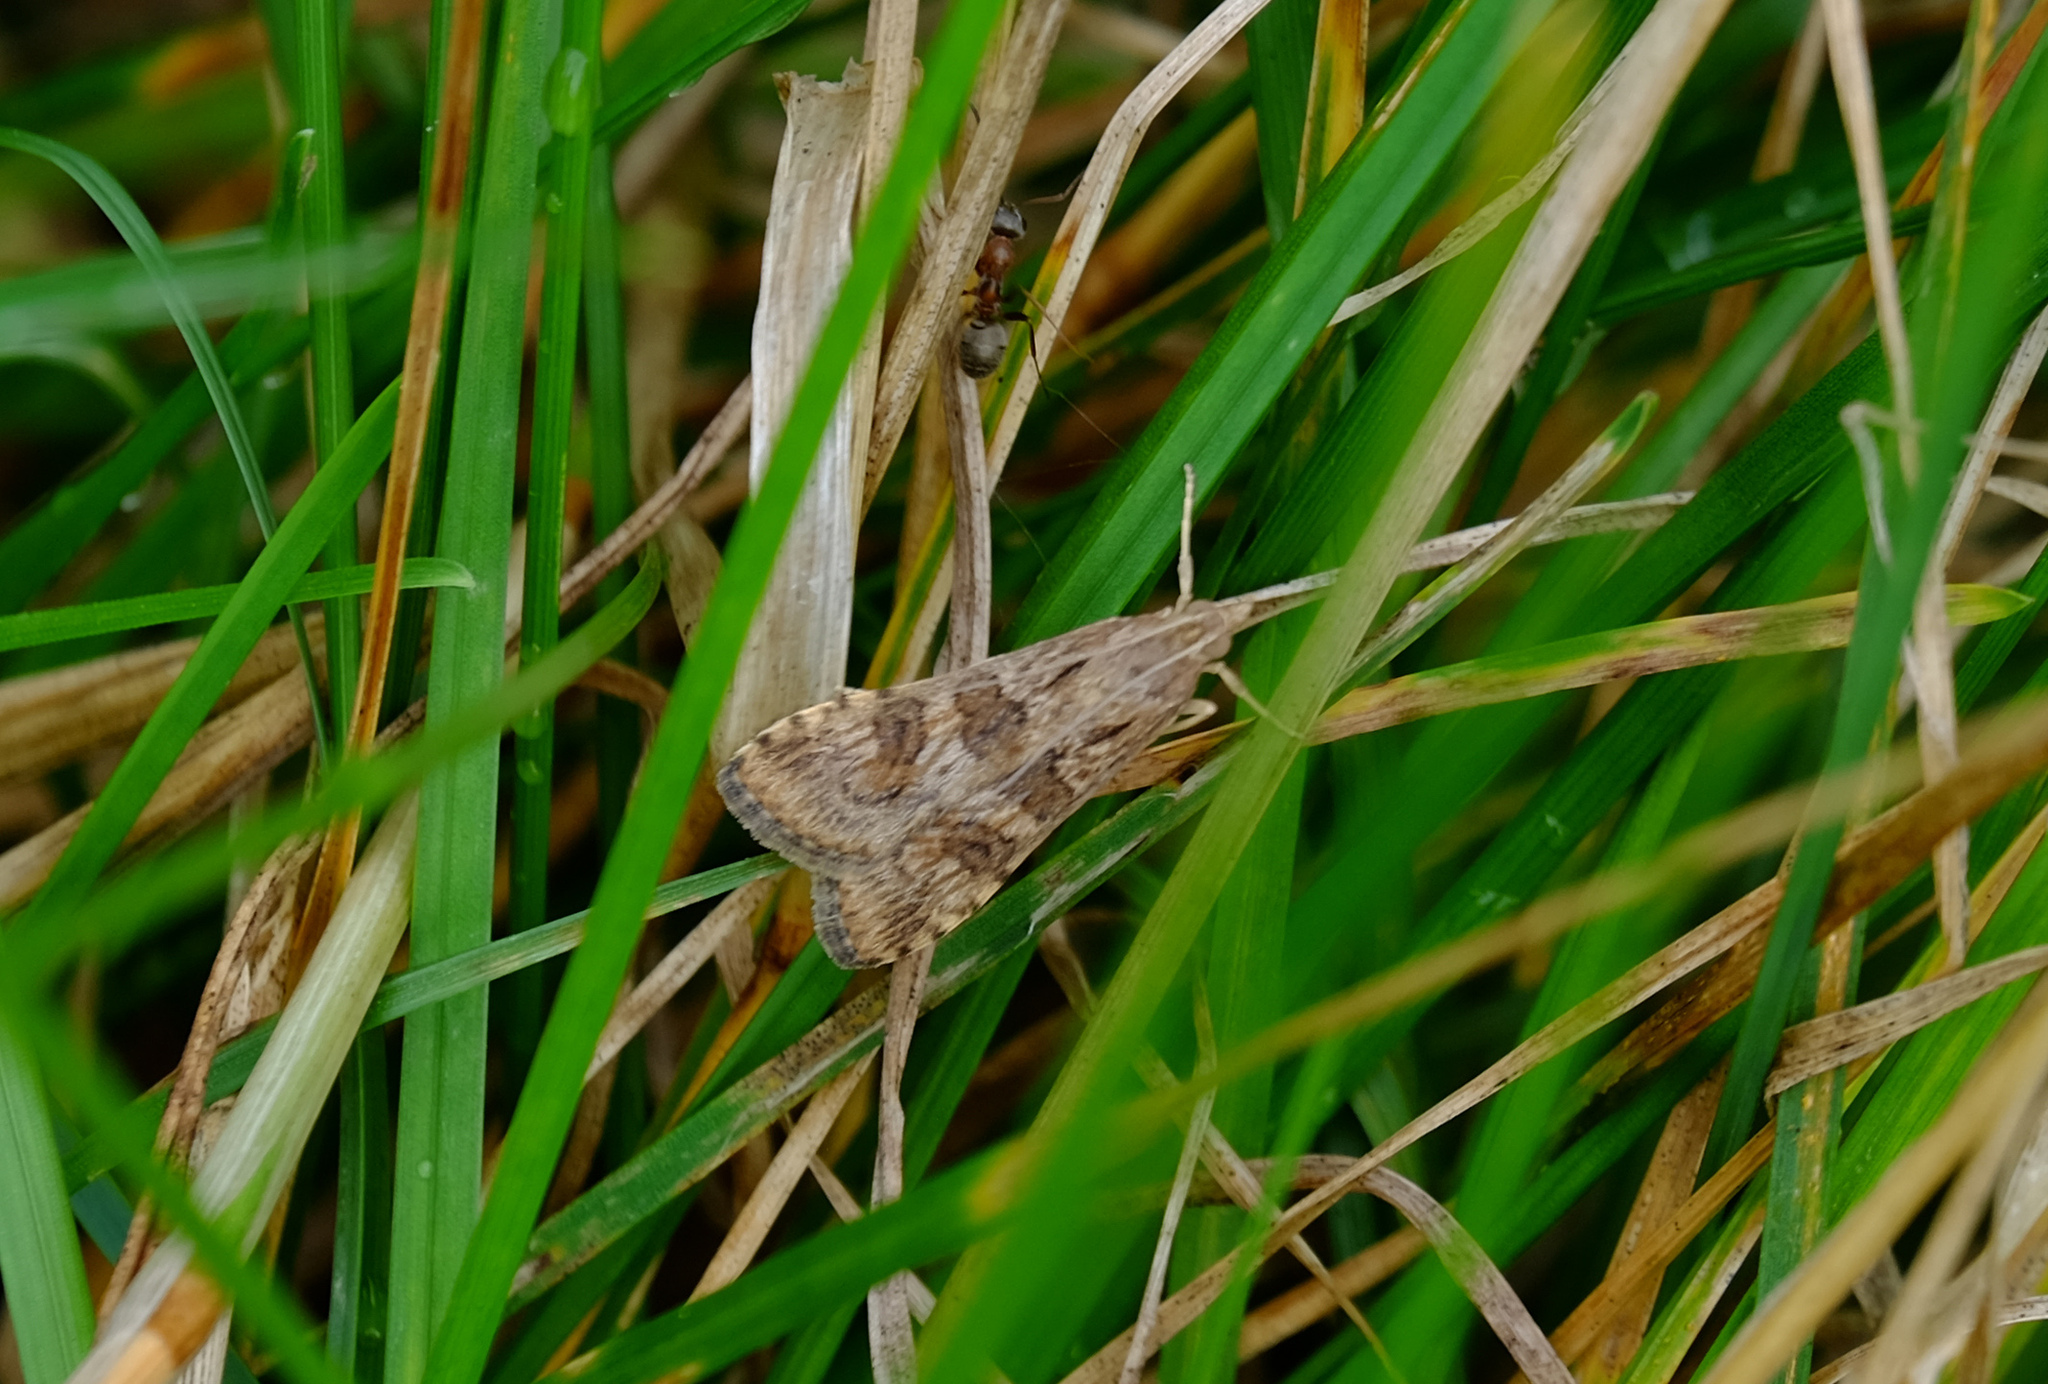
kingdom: Animalia
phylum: Arthropoda
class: Insecta
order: Lepidoptera
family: Crambidae
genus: Nomophila
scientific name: Nomophila noctuella
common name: Rush veneer
